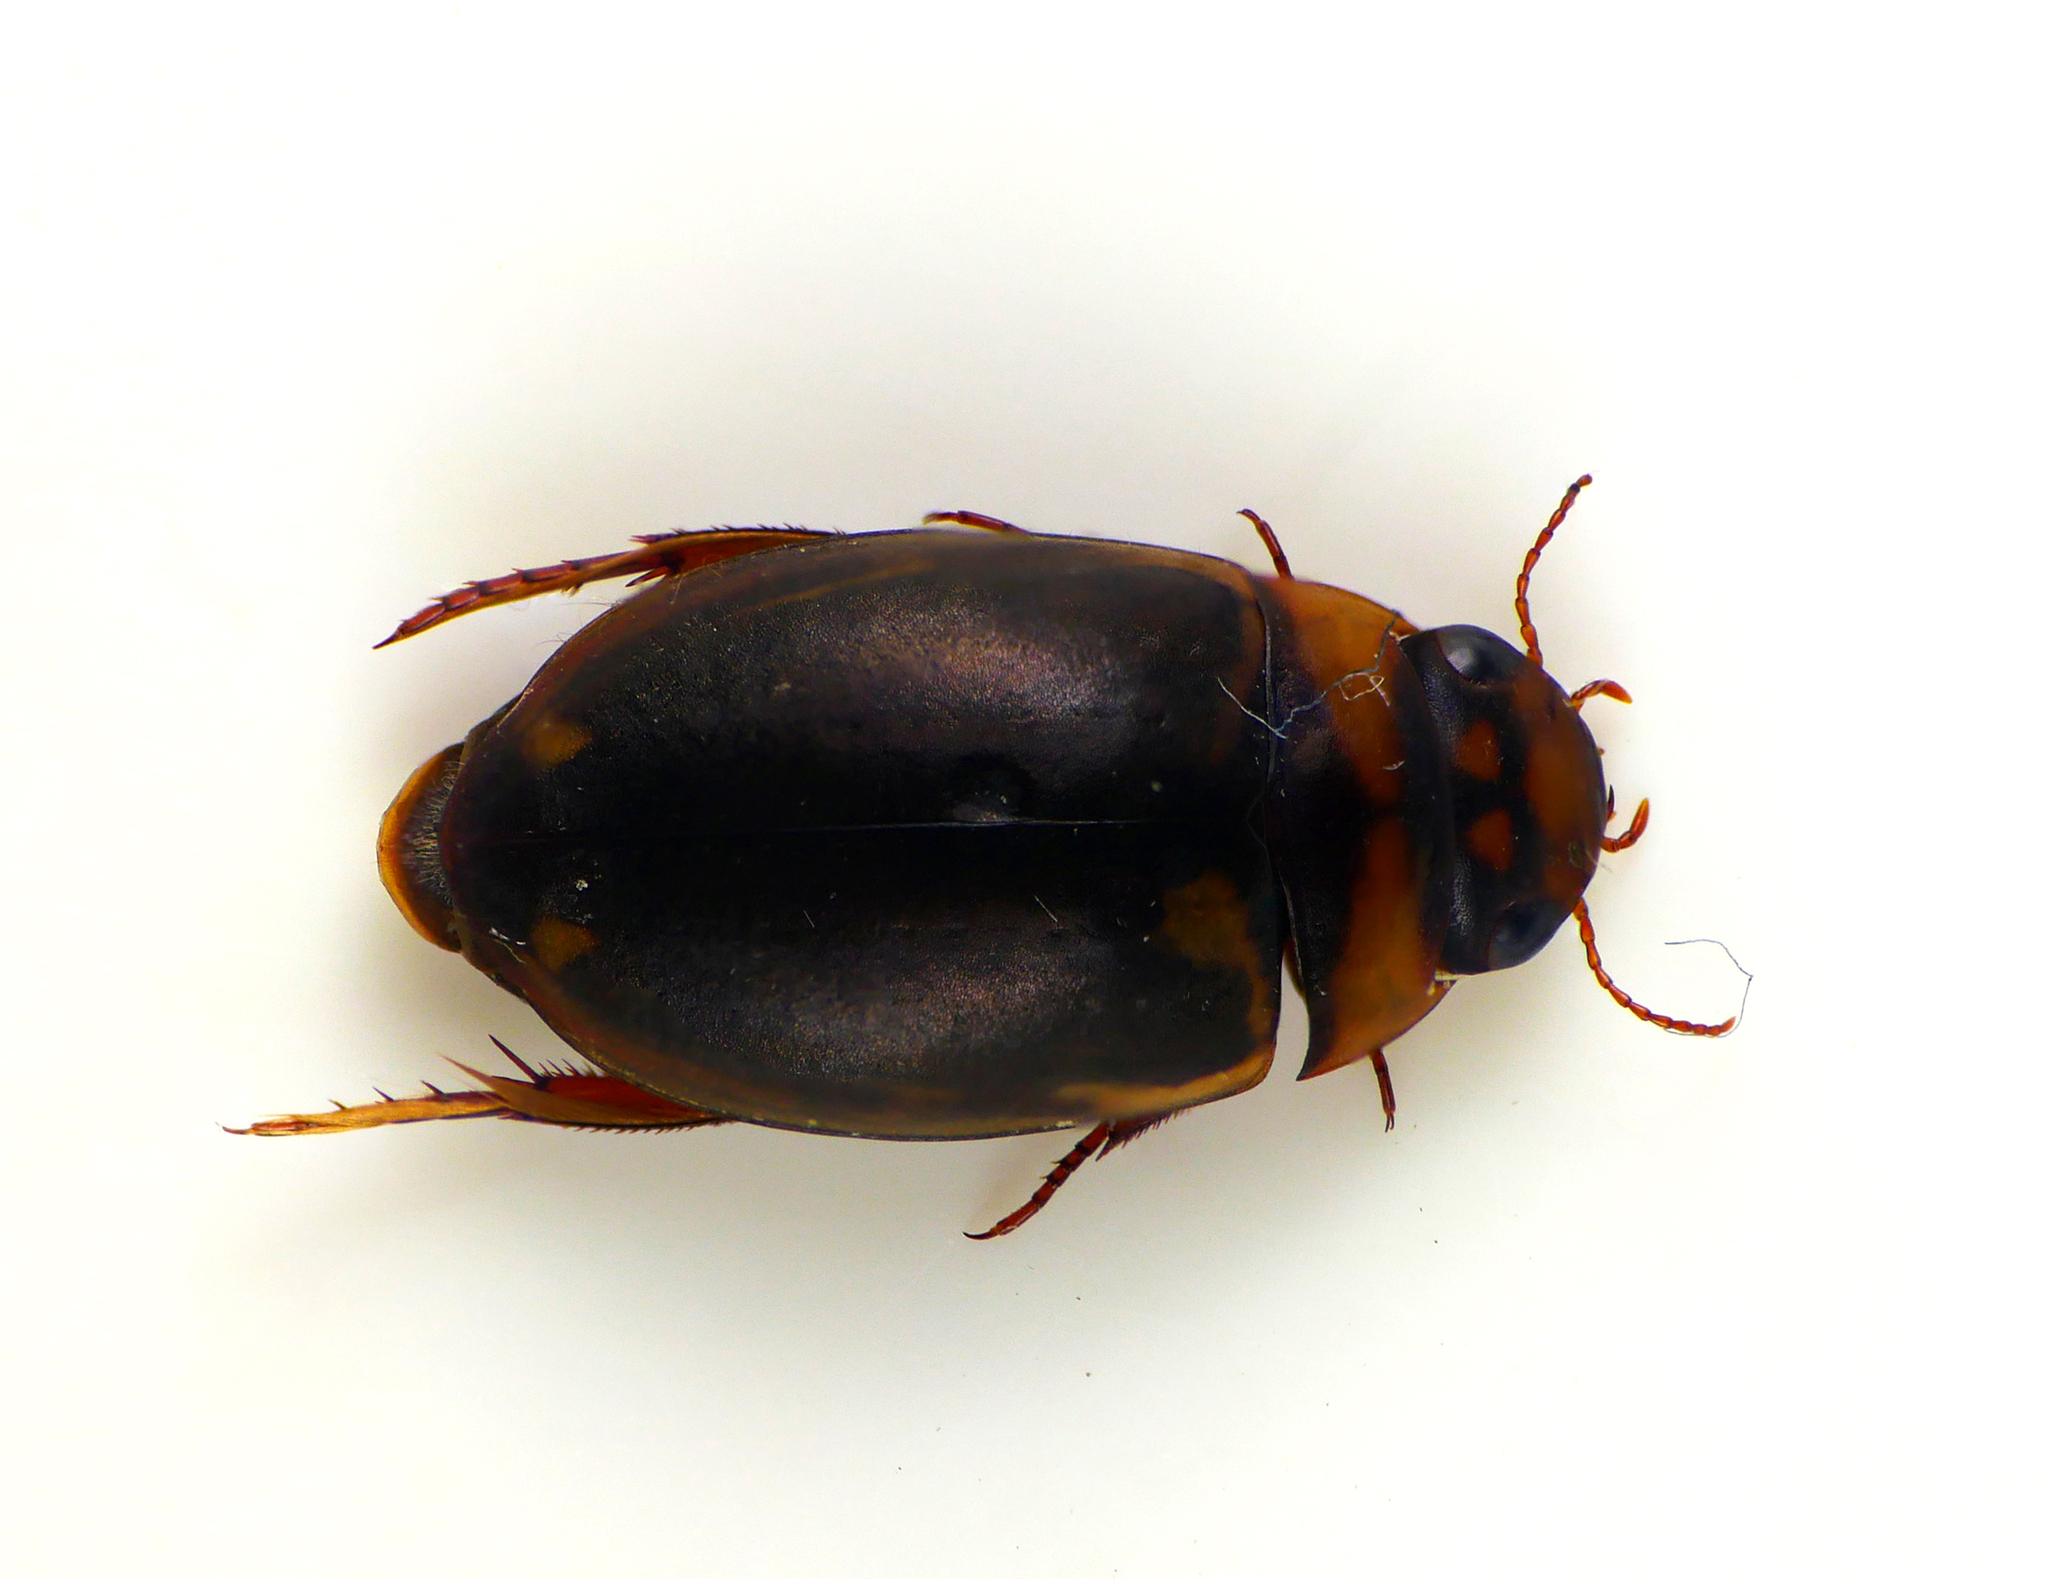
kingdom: Animalia
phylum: Arthropoda
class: Insecta
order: Coleoptera
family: Dytiscidae
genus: Platambus
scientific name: Platambus maculatus
